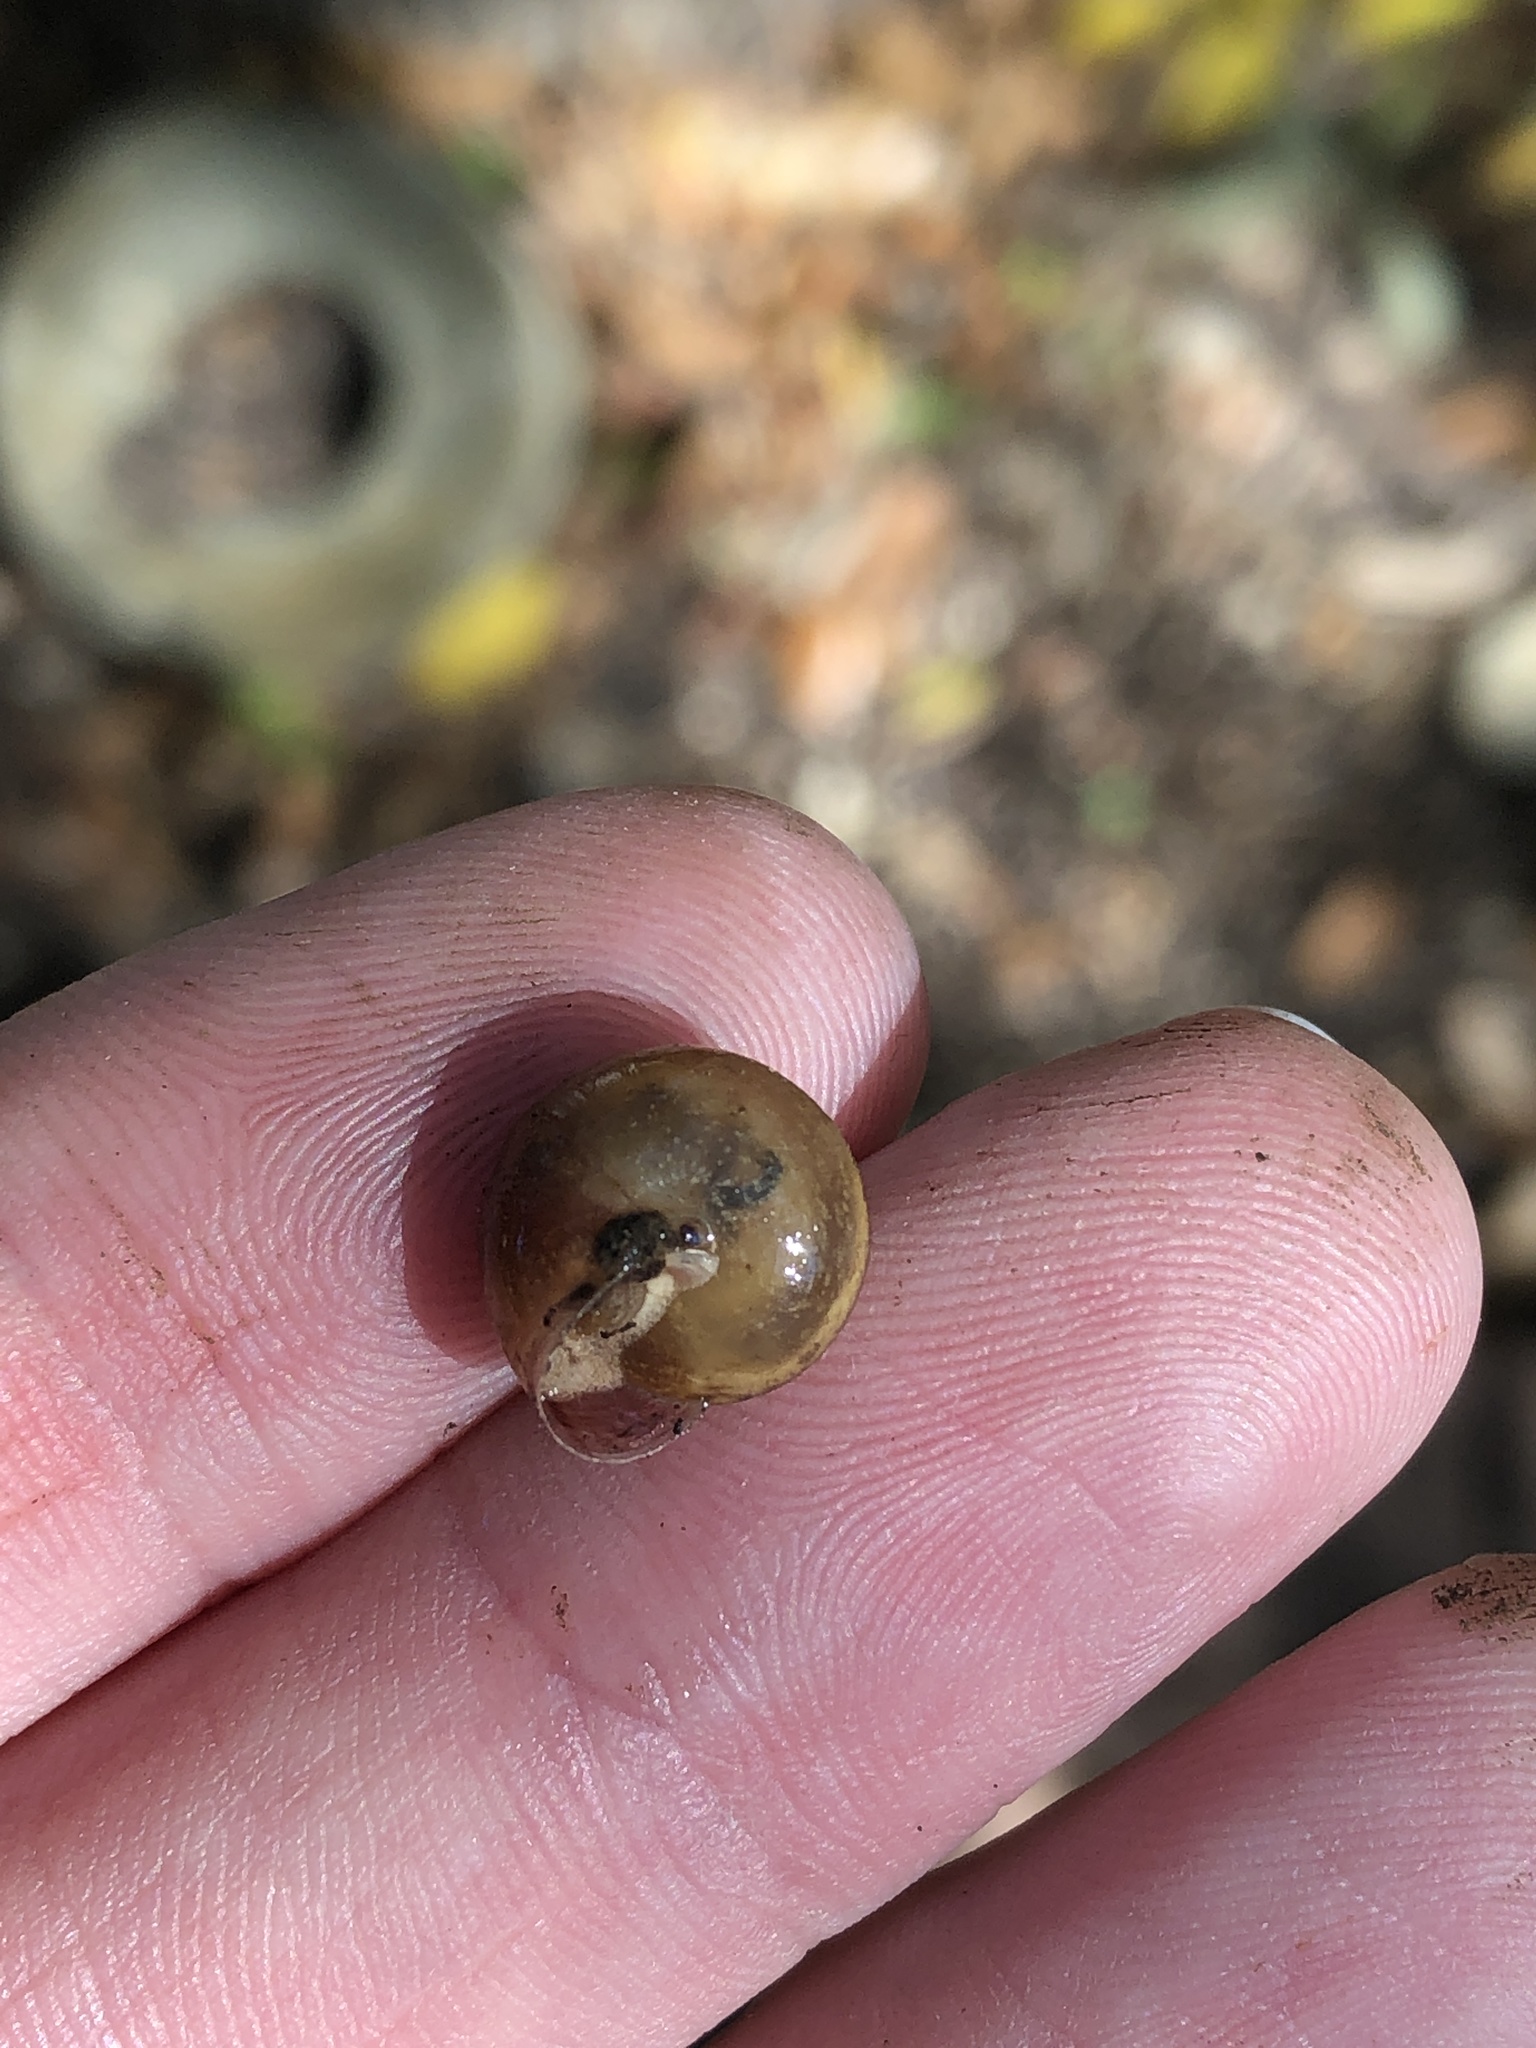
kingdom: Animalia
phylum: Mollusca
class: Gastropoda
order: Stylommatophora
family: Camaenidae
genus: Bradybaena
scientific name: Bradybaena similaris
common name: Asian trampsnail
